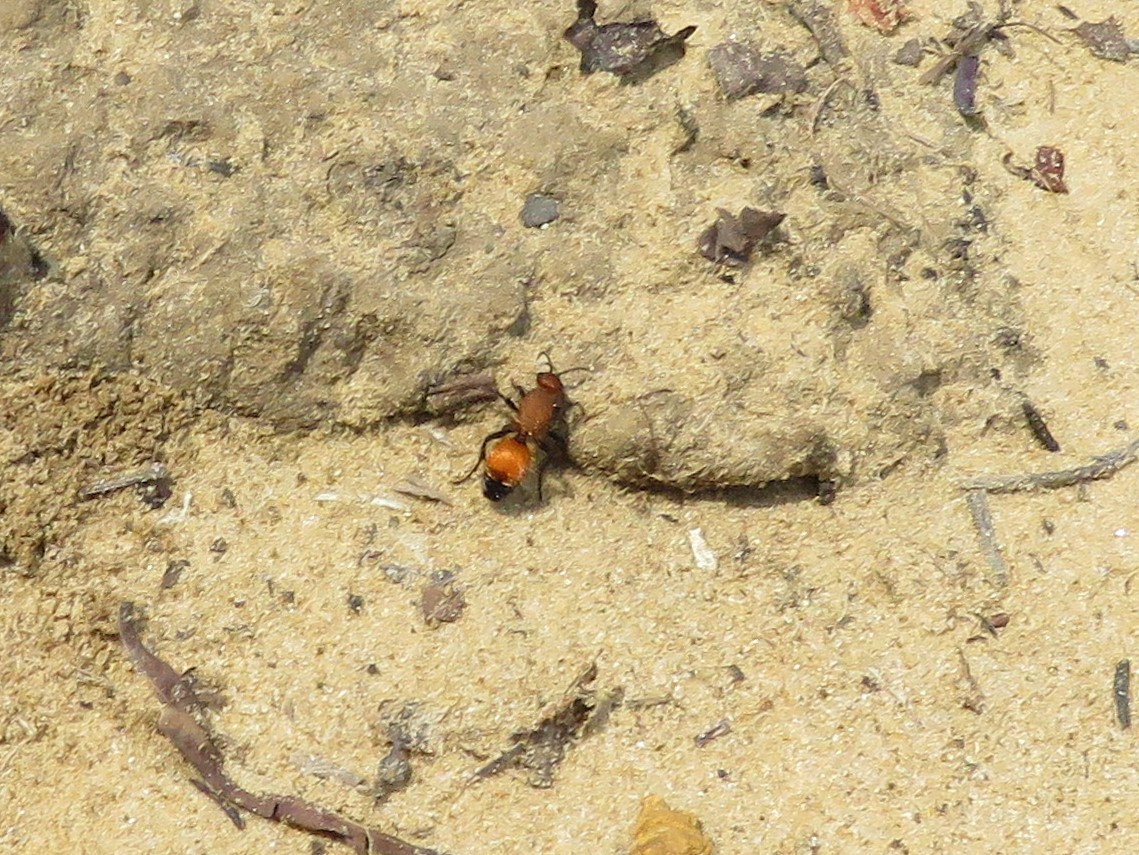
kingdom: Animalia
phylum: Arthropoda
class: Insecta
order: Hymenoptera
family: Mutillidae
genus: Dasymutilla
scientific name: Dasymutilla
